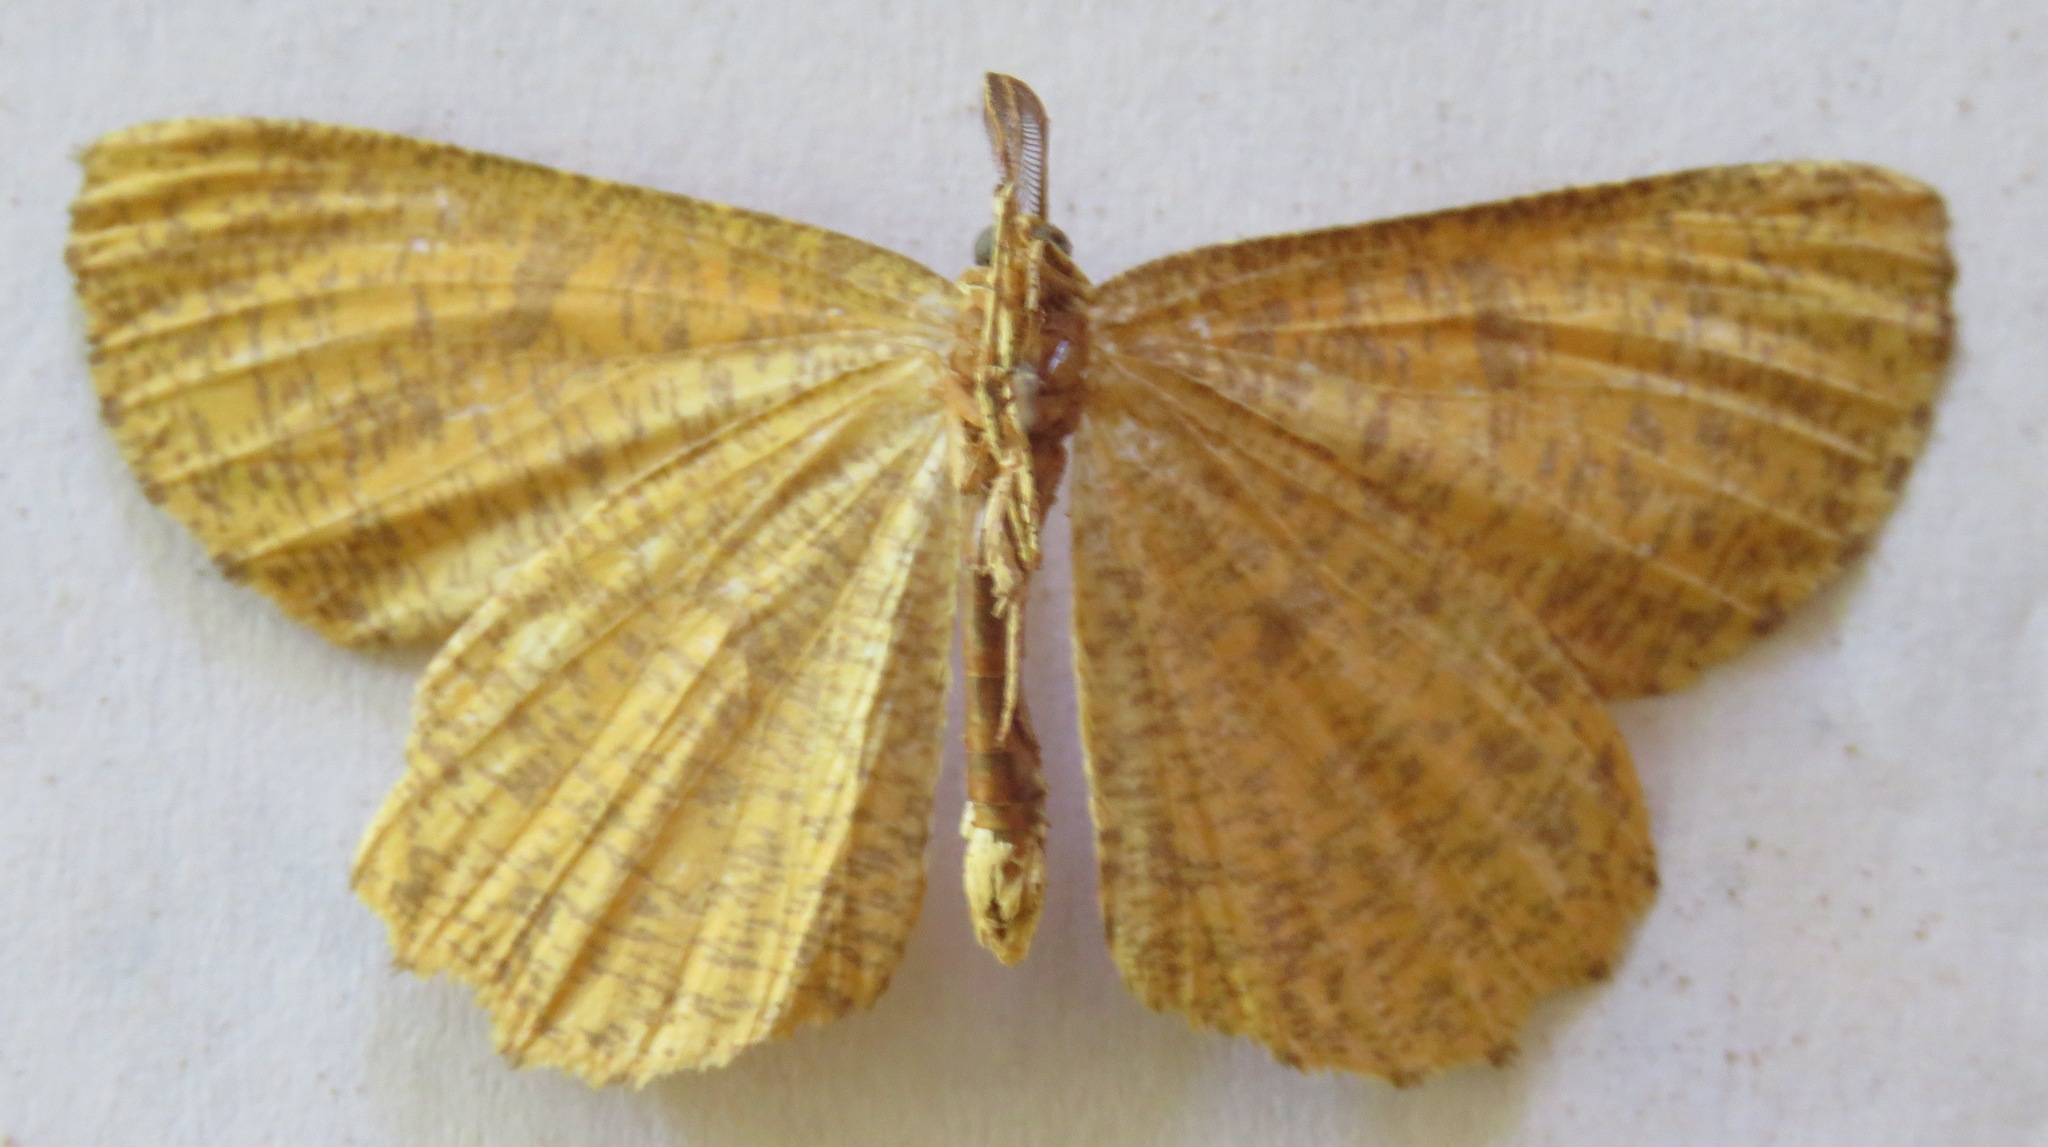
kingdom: Animalia
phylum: Arthropoda
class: Insecta
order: Lepidoptera
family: Geometridae
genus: Angerona
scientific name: Angerona prunaria
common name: Orange moth
